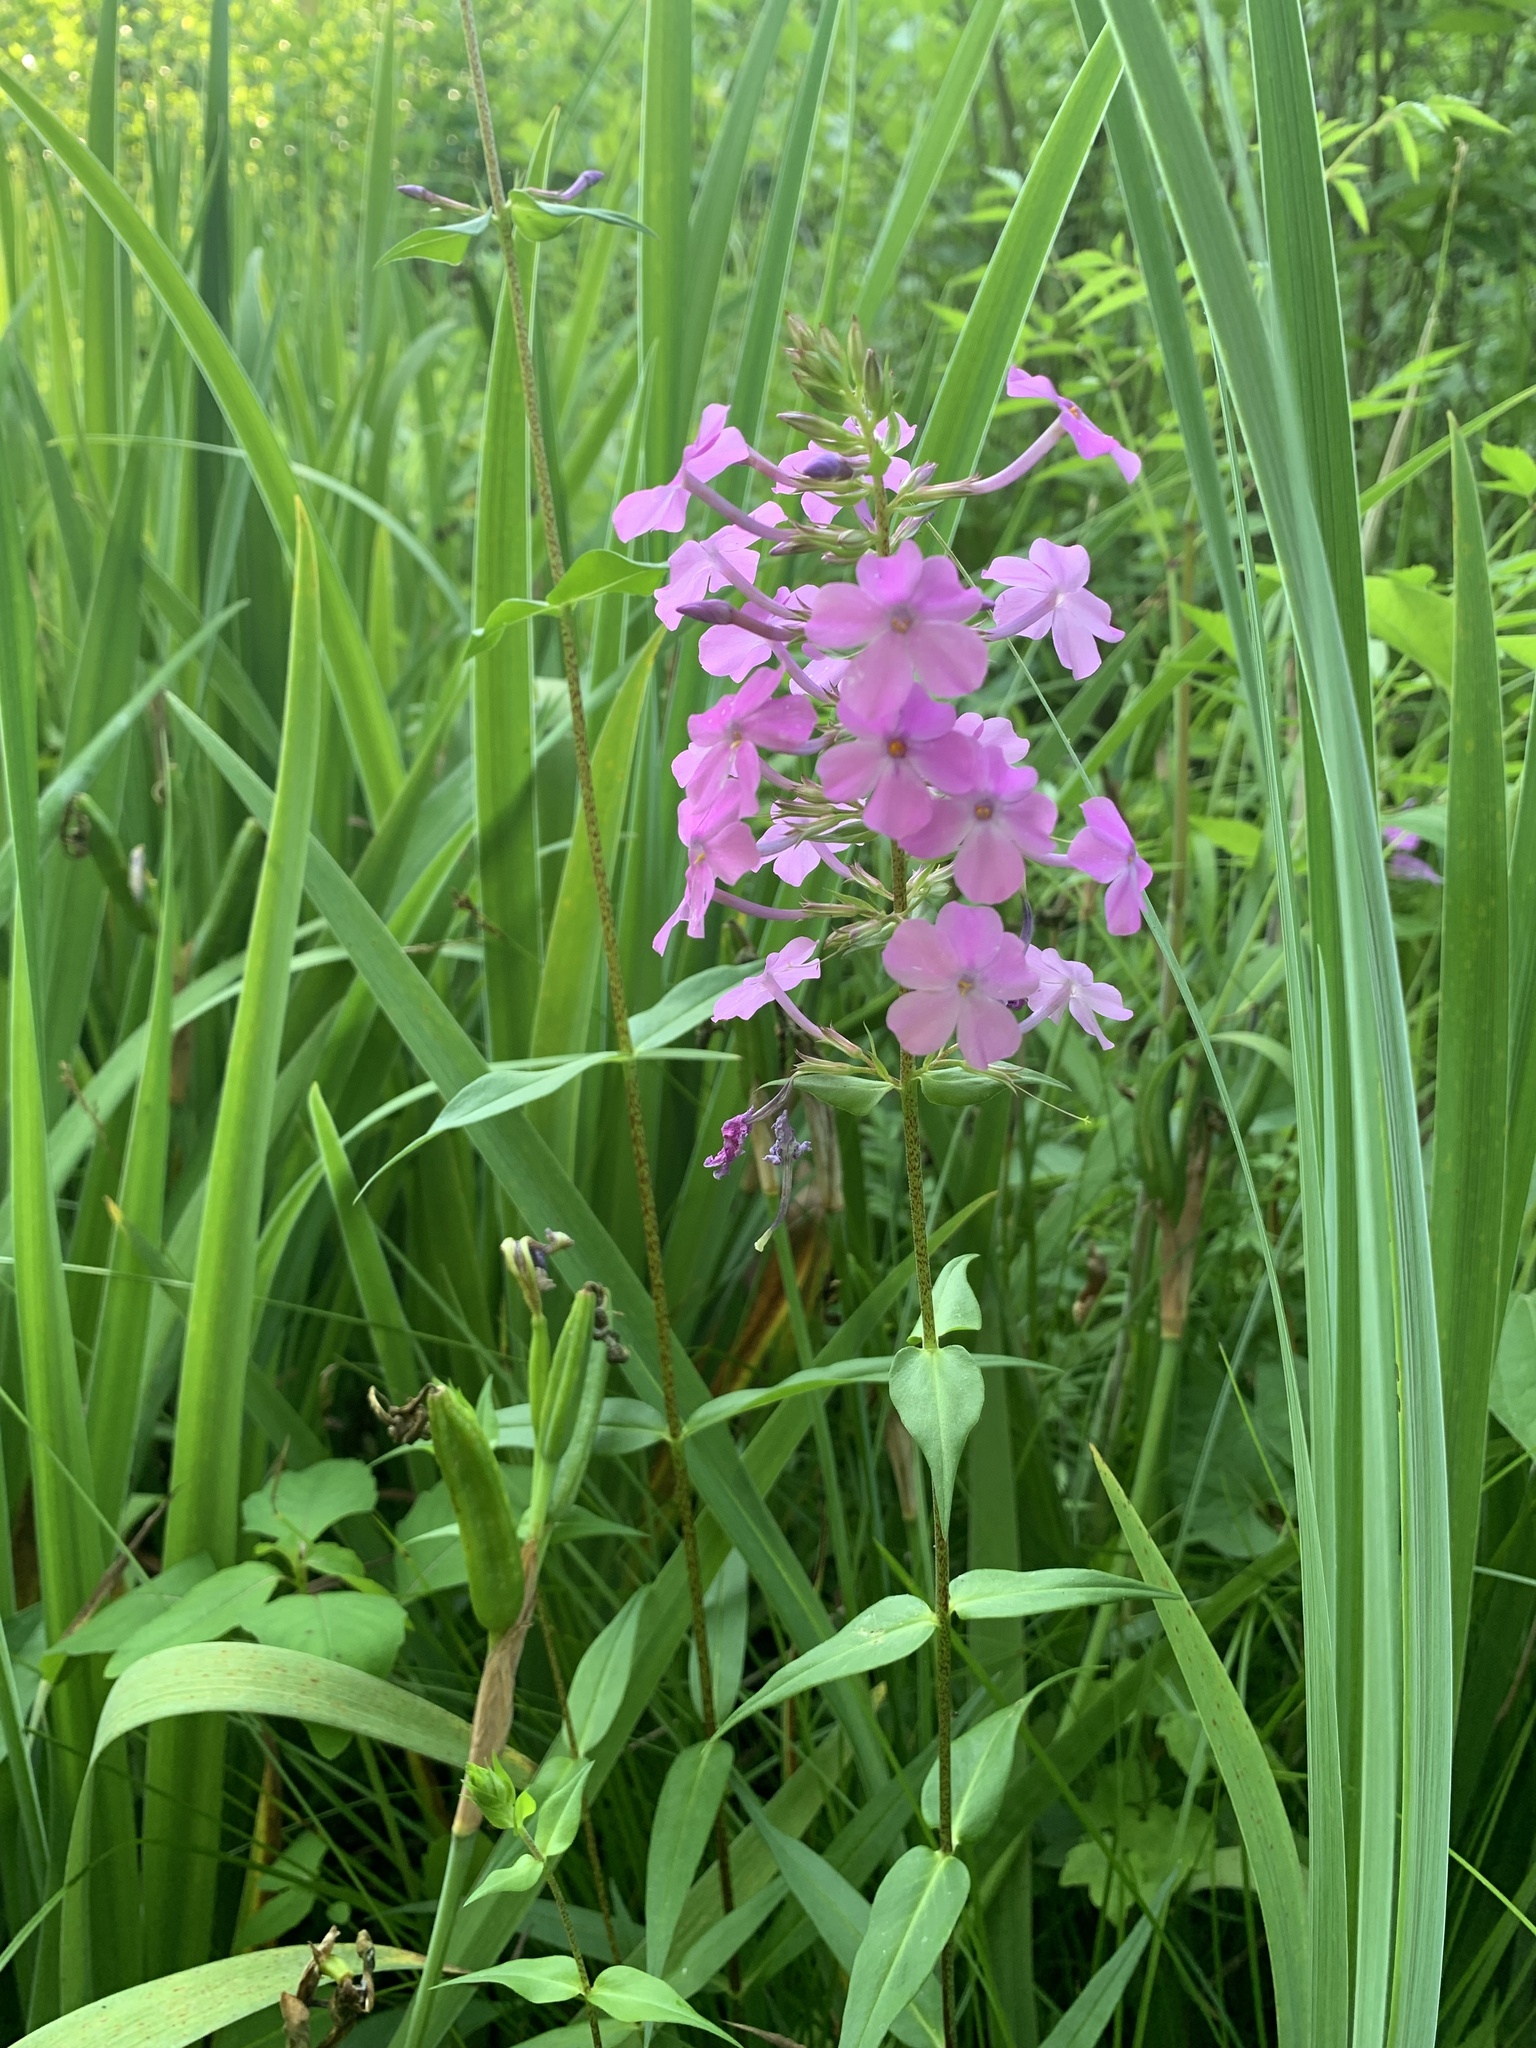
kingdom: Plantae
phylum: Tracheophyta
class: Magnoliopsida
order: Ericales
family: Polemoniaceae
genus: Phlox
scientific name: Phlox maculata
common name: Meadow phlox
